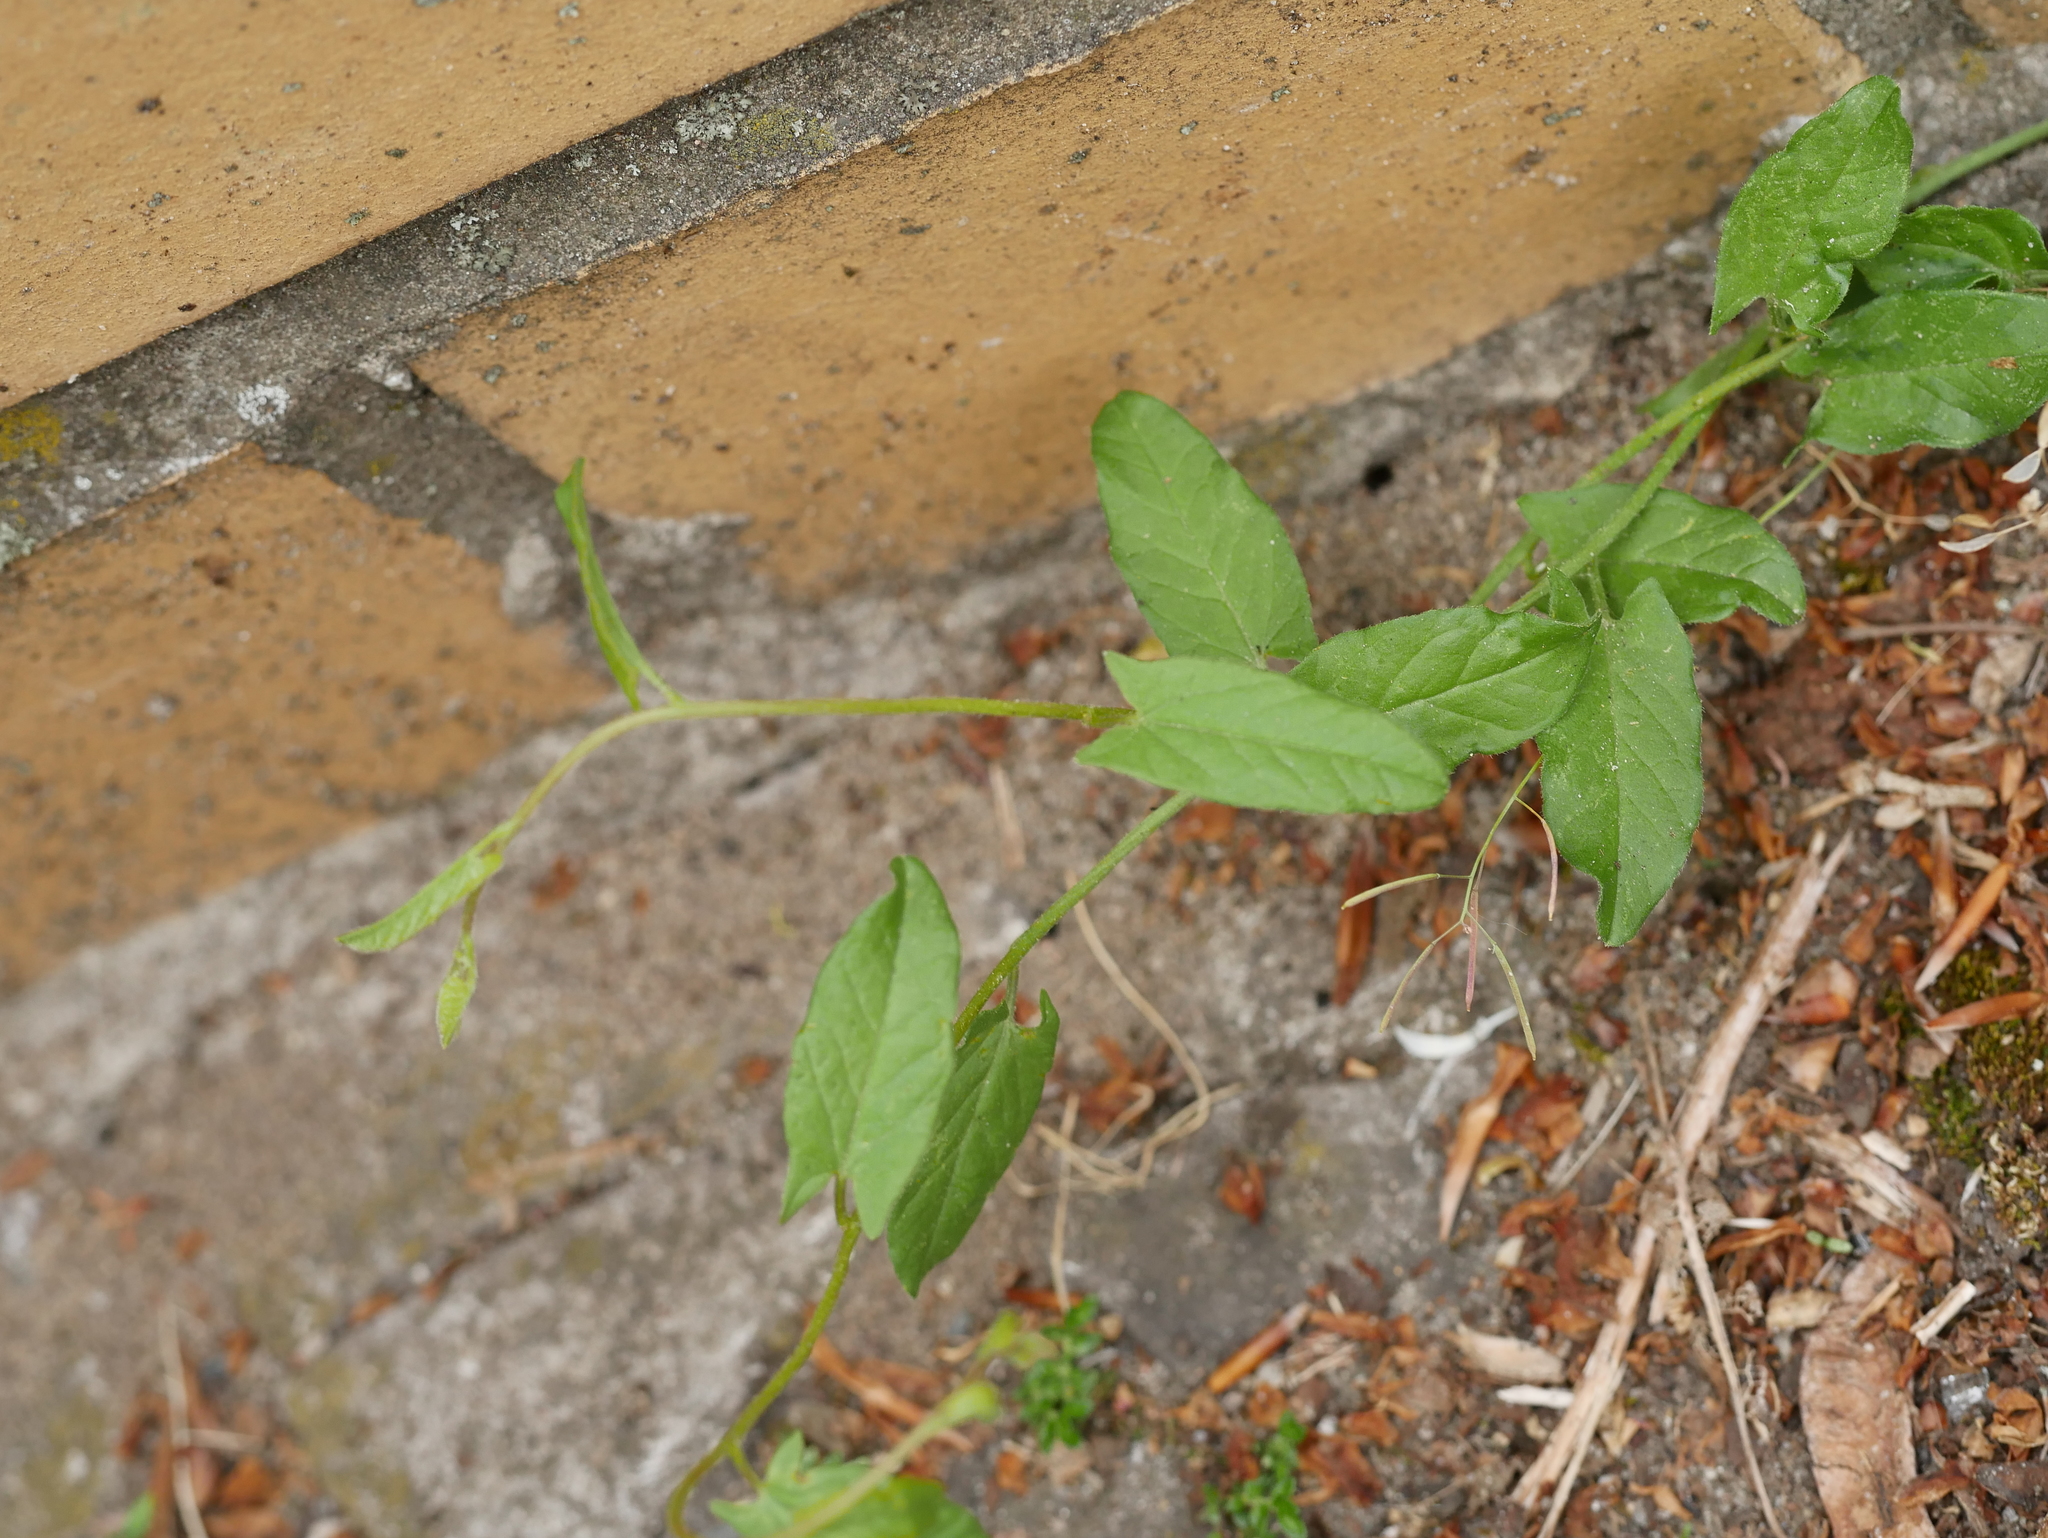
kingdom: Plantae
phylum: Tracheophyta
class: Magnoliopsida
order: Solanales
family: Convolvulaceae
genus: Convolvulus
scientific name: Convolvulus arvensis
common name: Field bindweed
